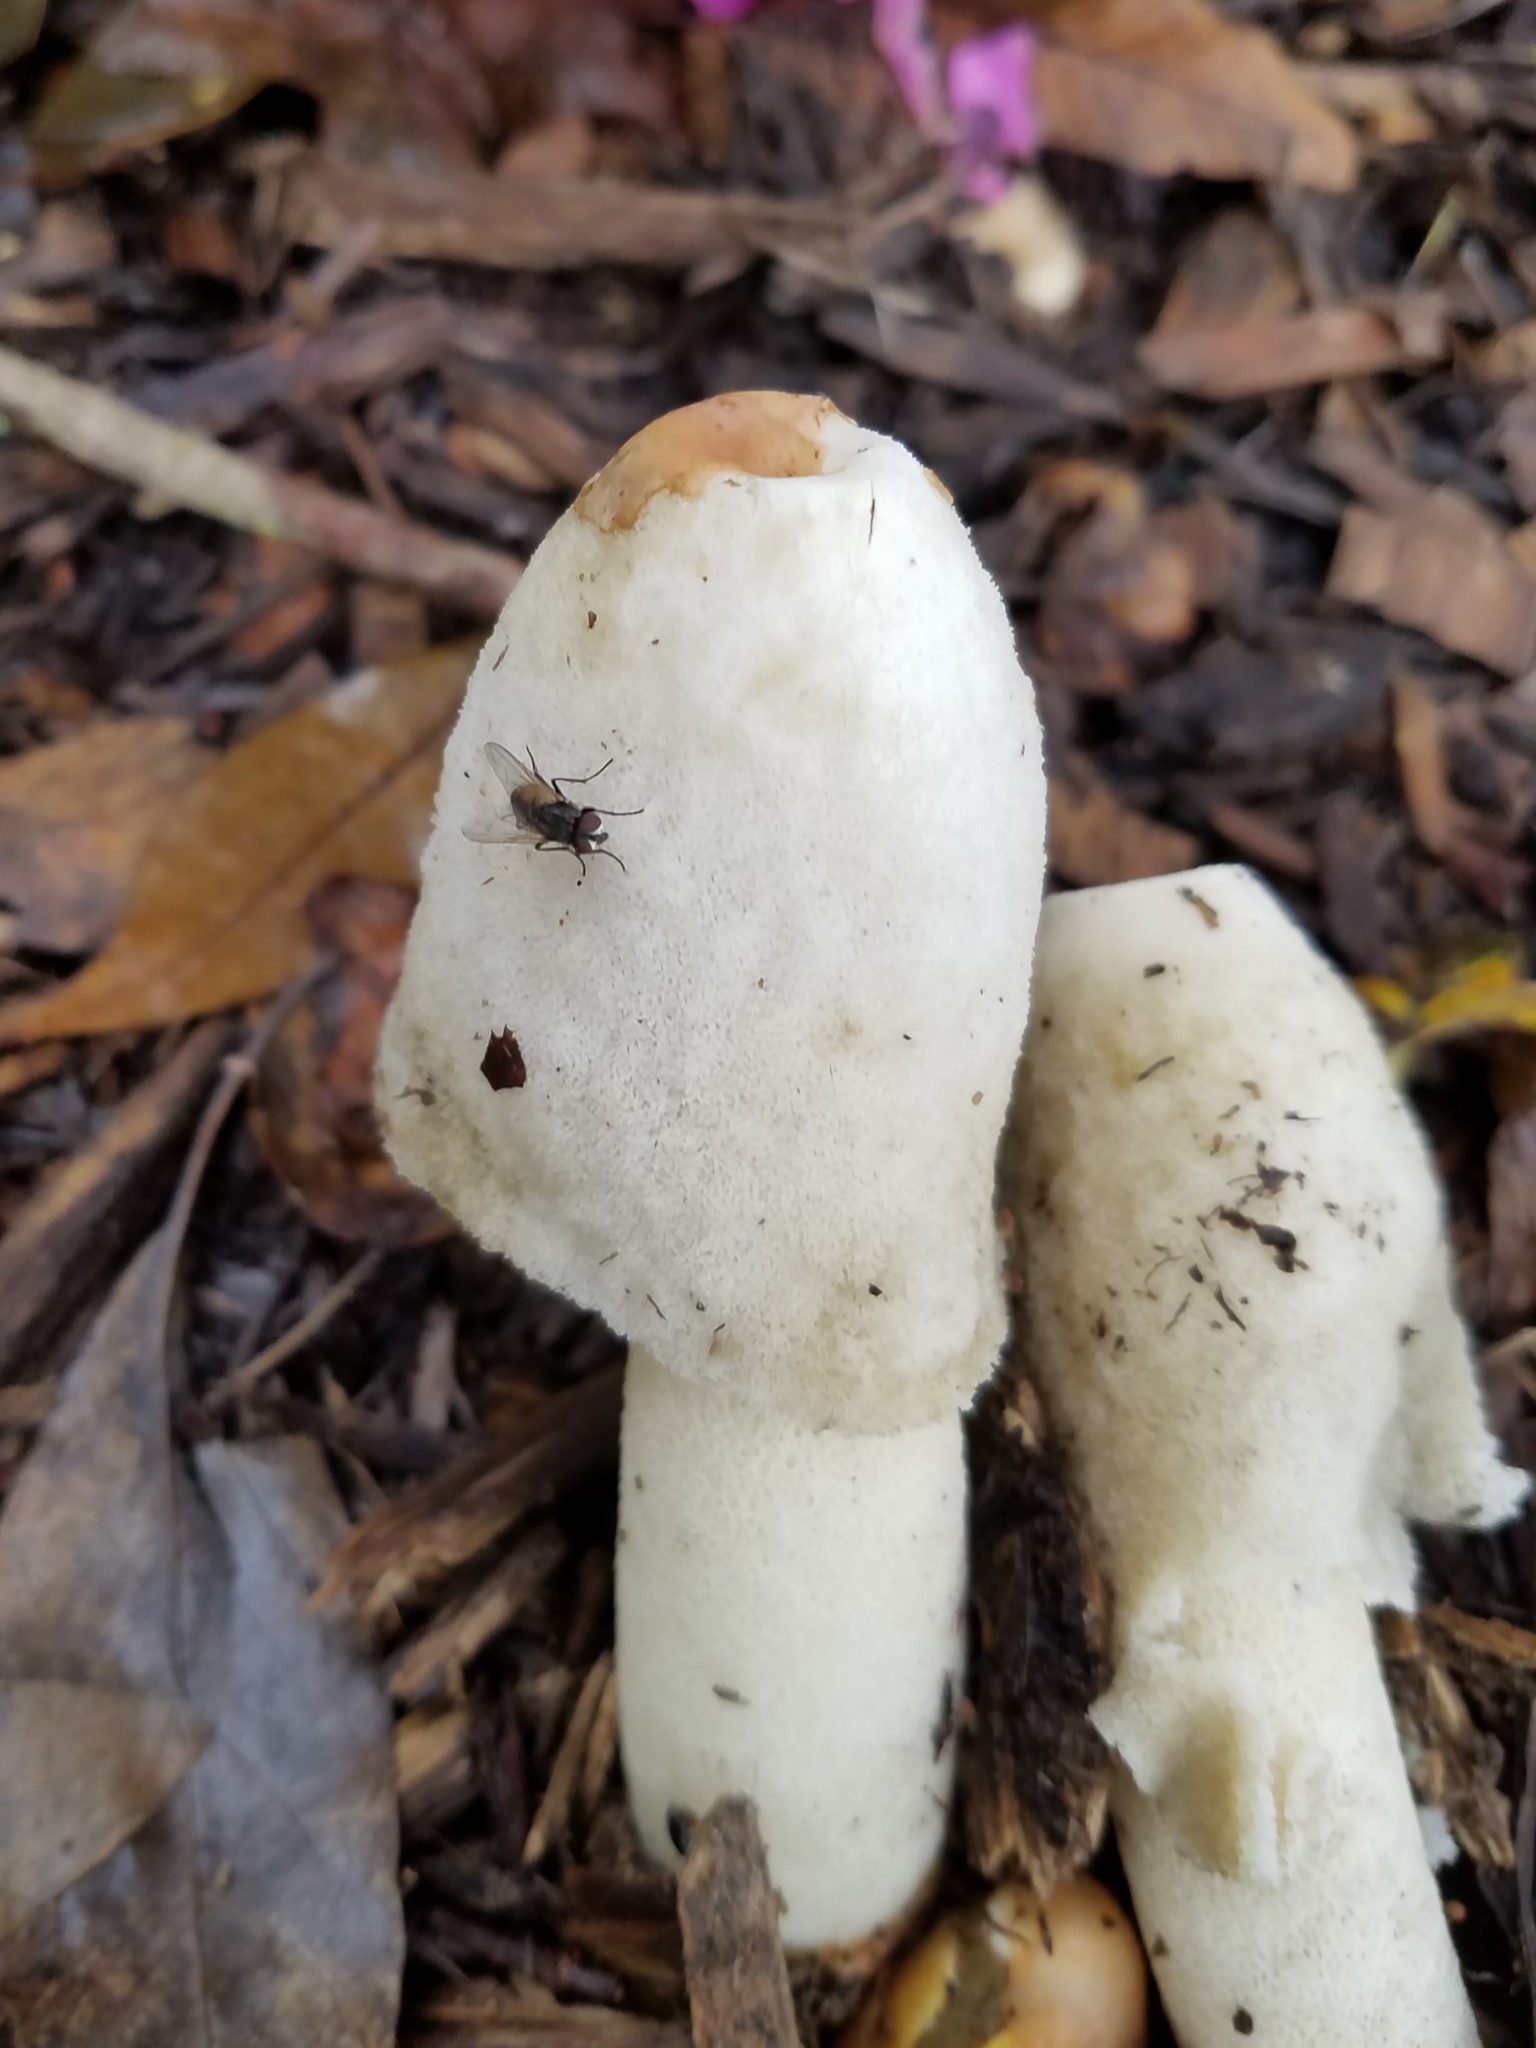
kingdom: Fungi
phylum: Basidiomycota
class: Agaricomycetes
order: Phallales
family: Phallaceae
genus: Phallus
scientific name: Phallus ravenelii
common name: Ravenel's stinkhorn
